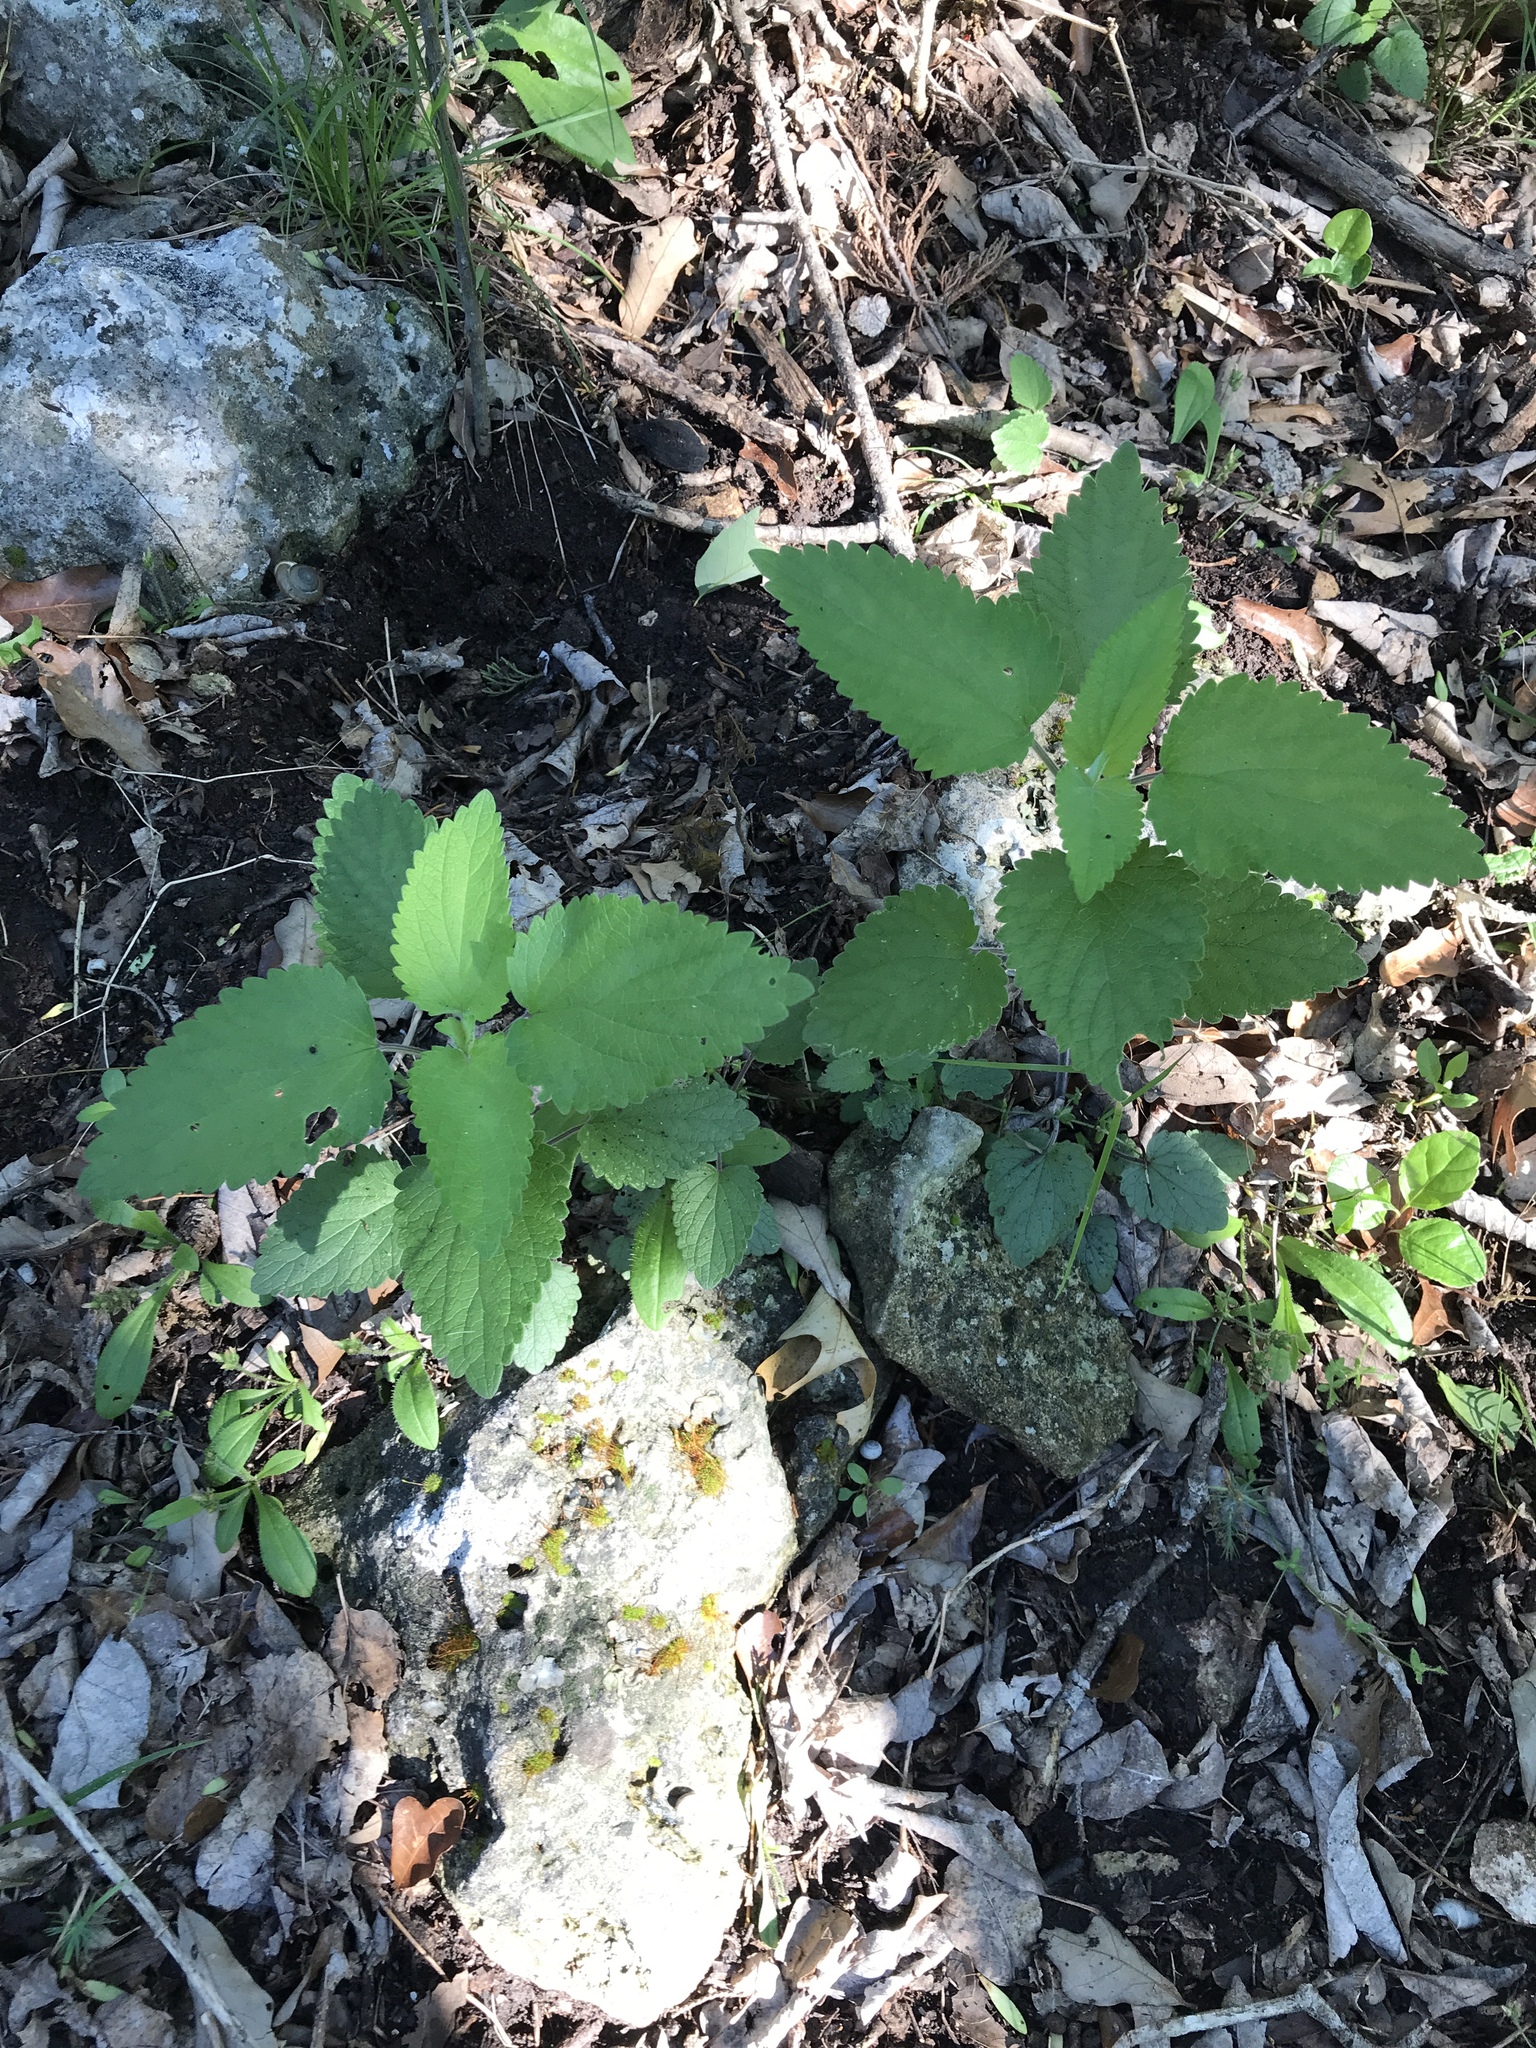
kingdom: Plantae
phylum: Tracheophyta
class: Magnoliopsida
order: Lamiales
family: Lamiaceae
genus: Scutellaria
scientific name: Scutellaria ovata
